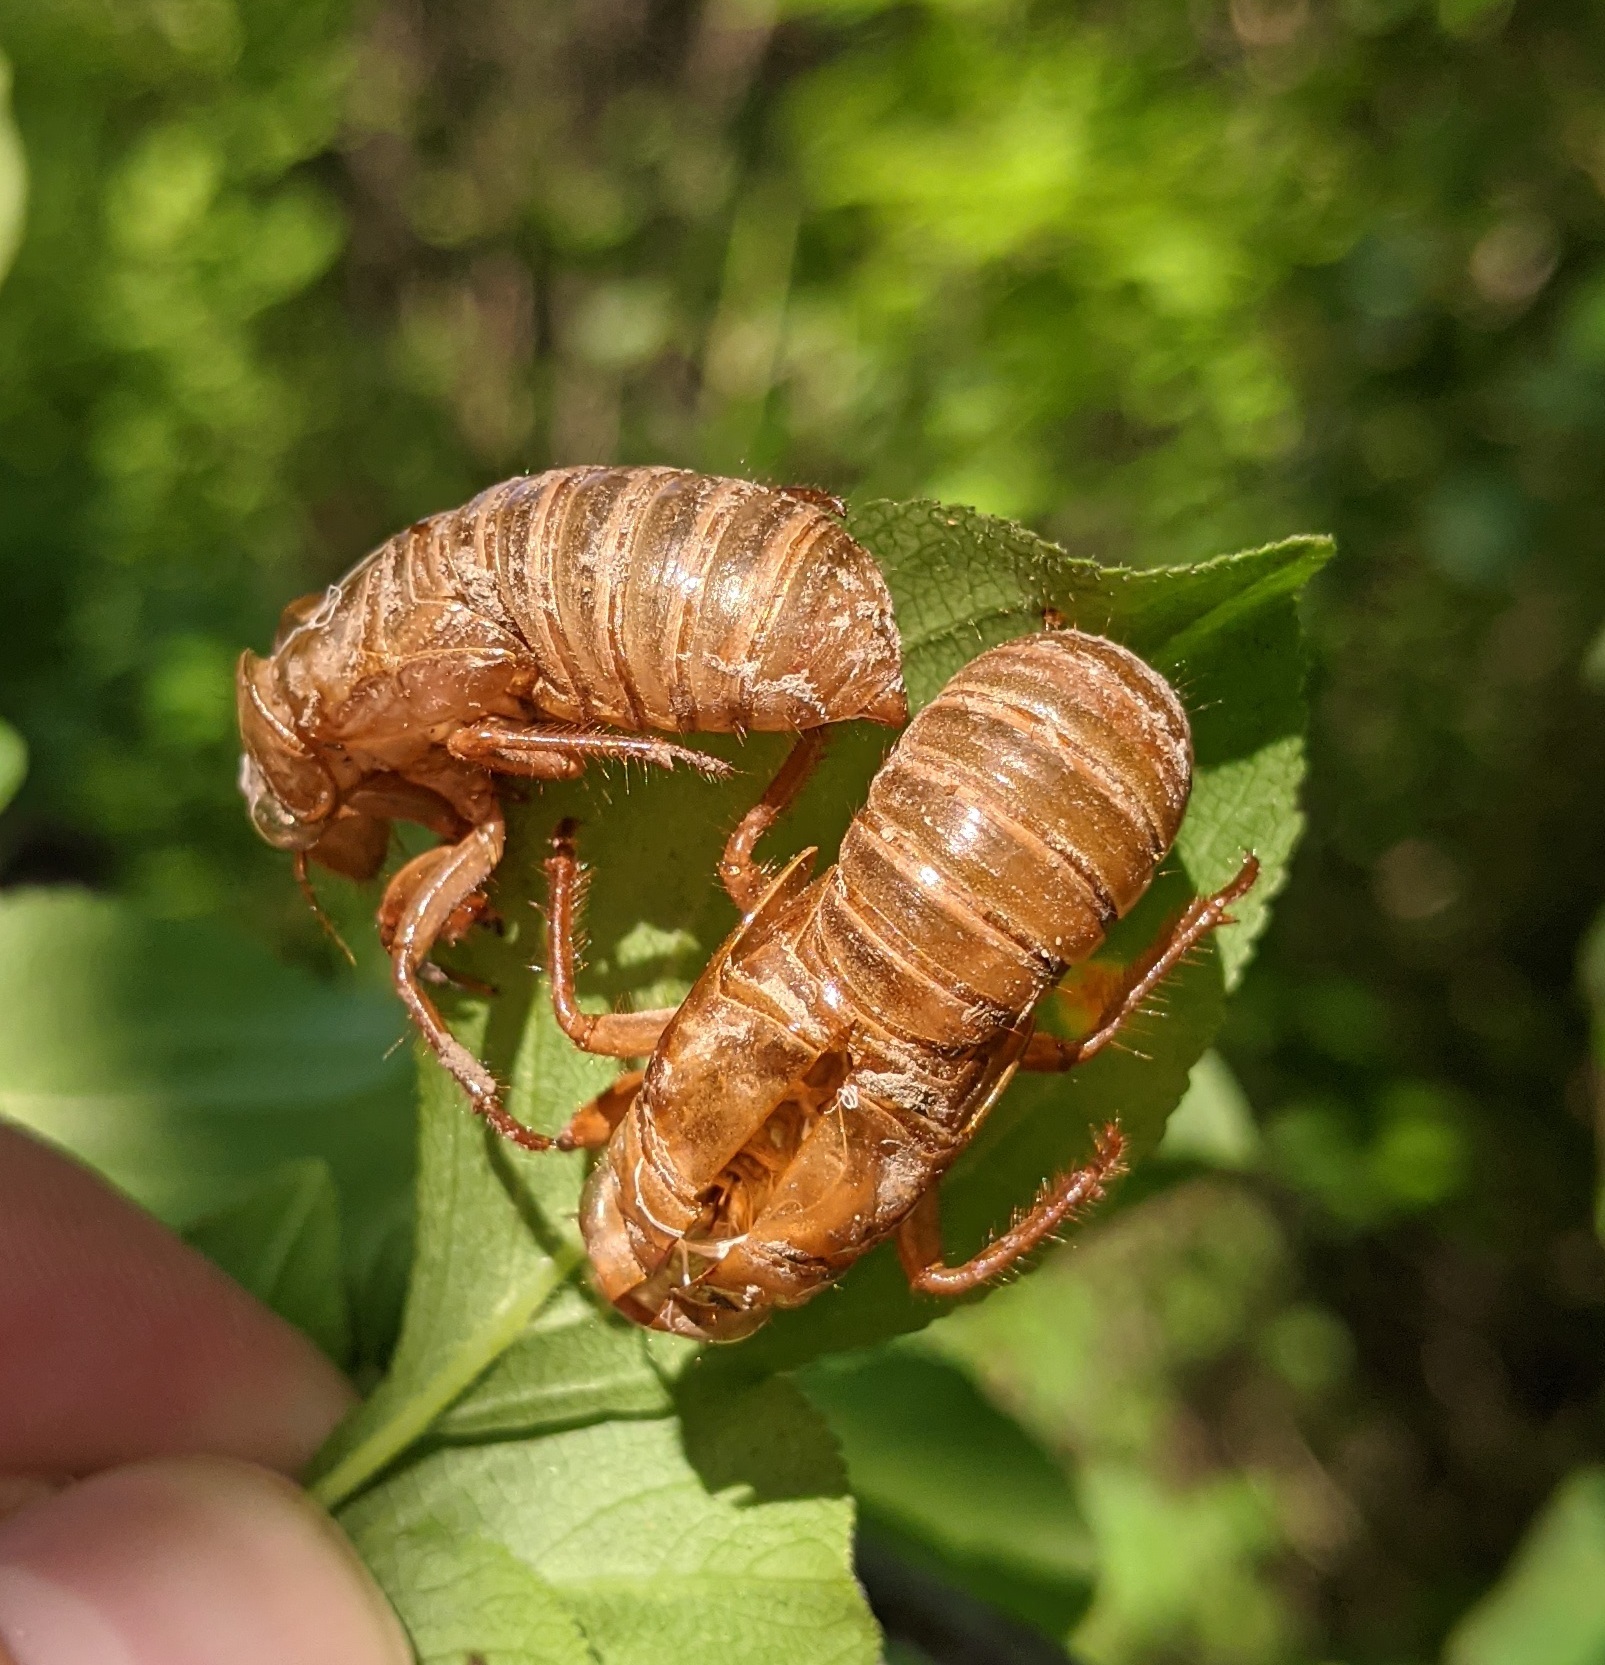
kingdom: Animalia
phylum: Arthropoda
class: Insecta
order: Hemiptera
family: Cicadidae
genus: Magicicada
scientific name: Magicicada septendecim
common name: Periodical cicada
